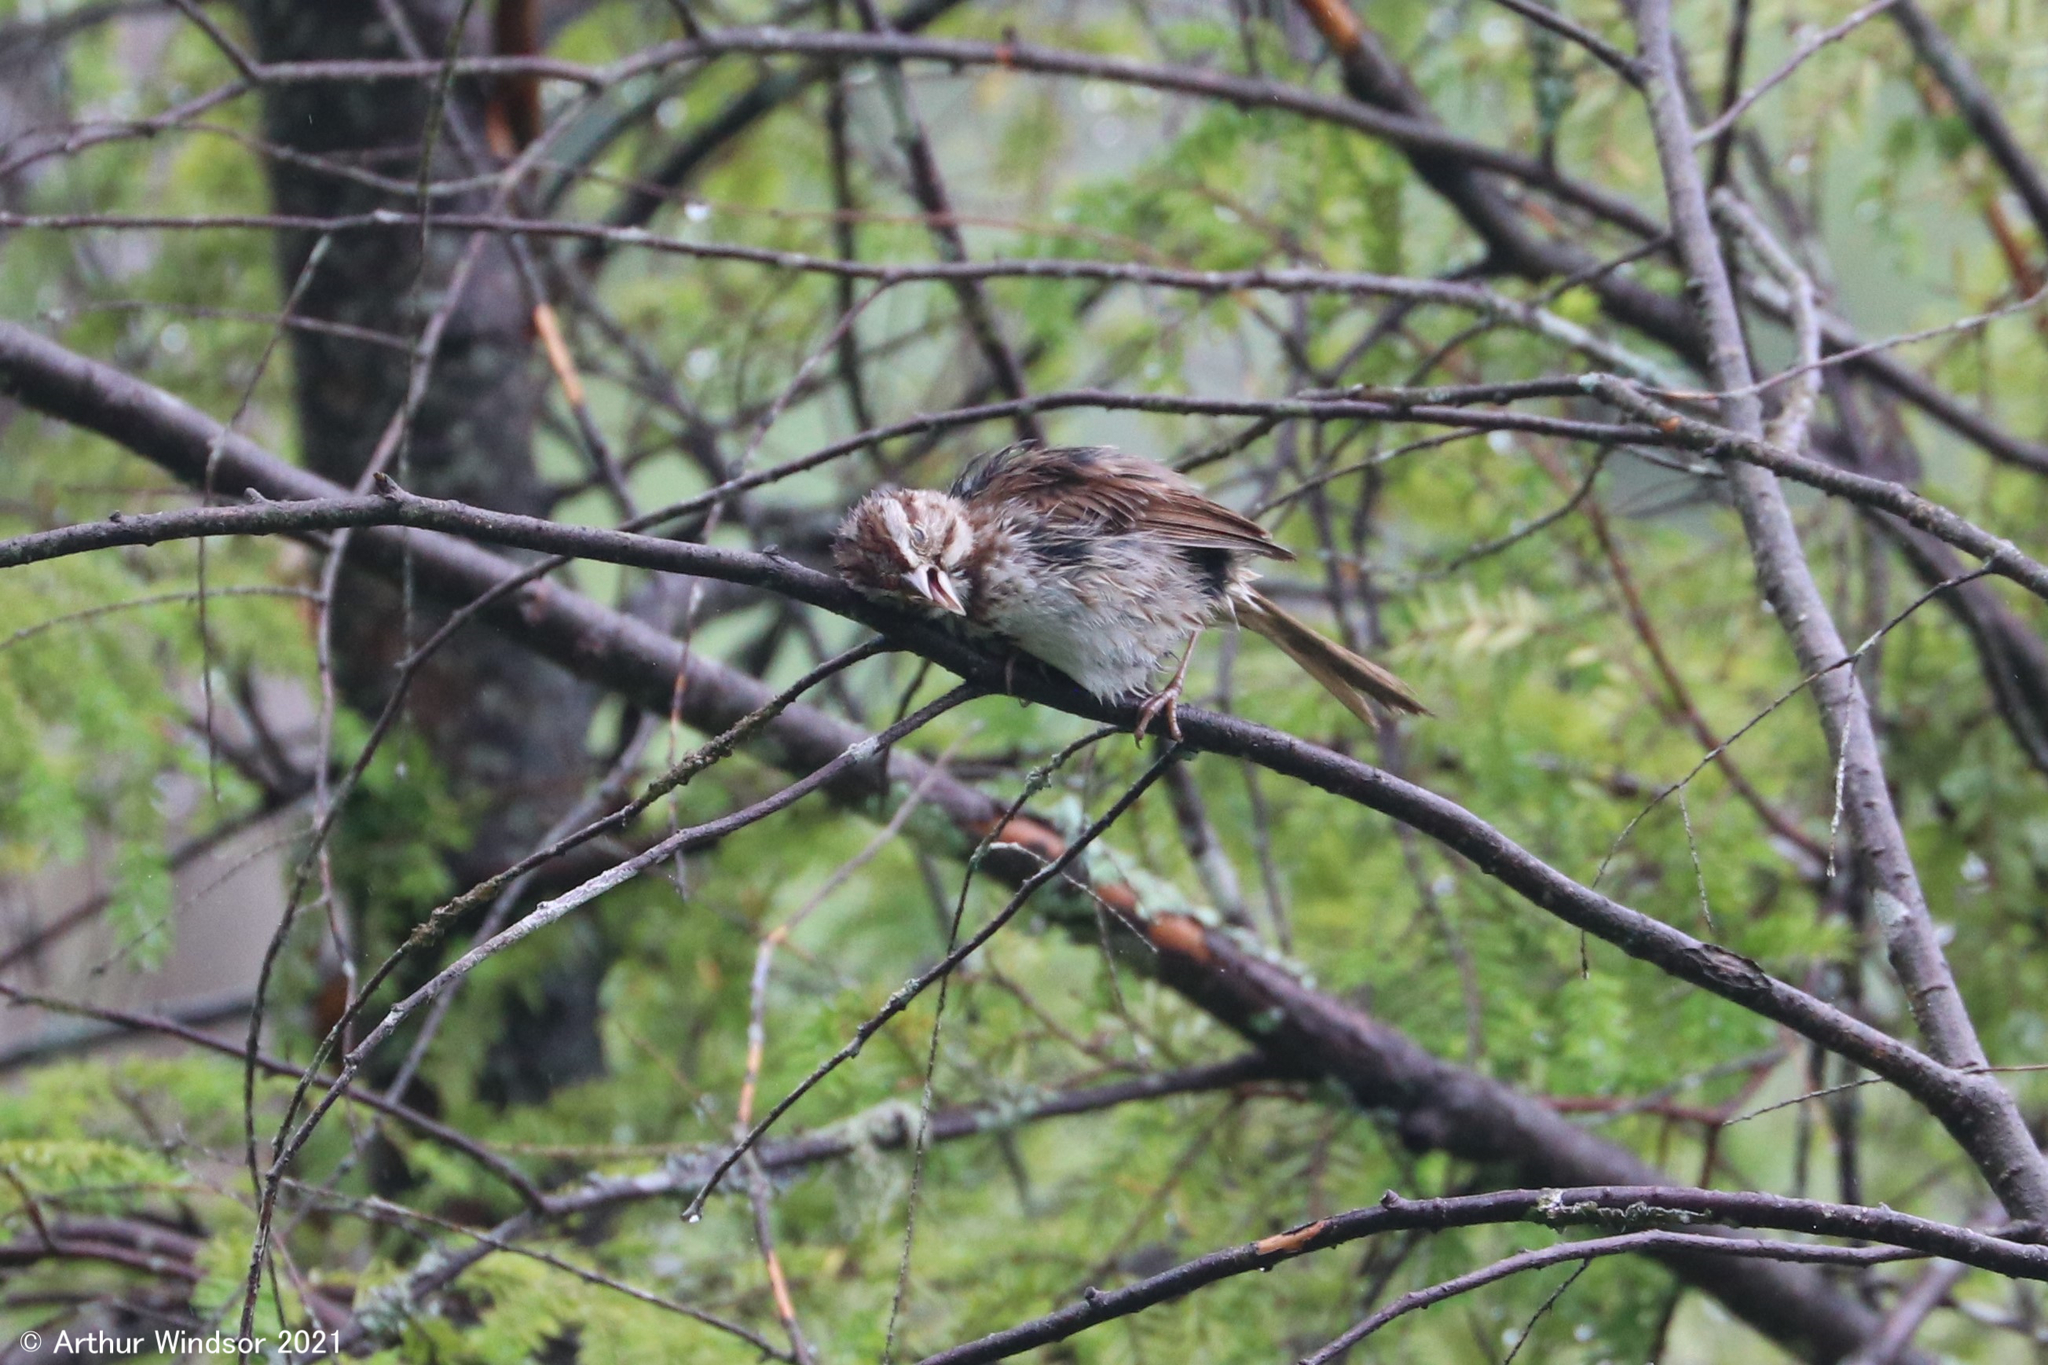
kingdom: Animalia
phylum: Chordata
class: Aves
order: Passeriformes
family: Passerellidae
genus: Melospiza
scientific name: Melospiza melodia
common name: Song sparrow
